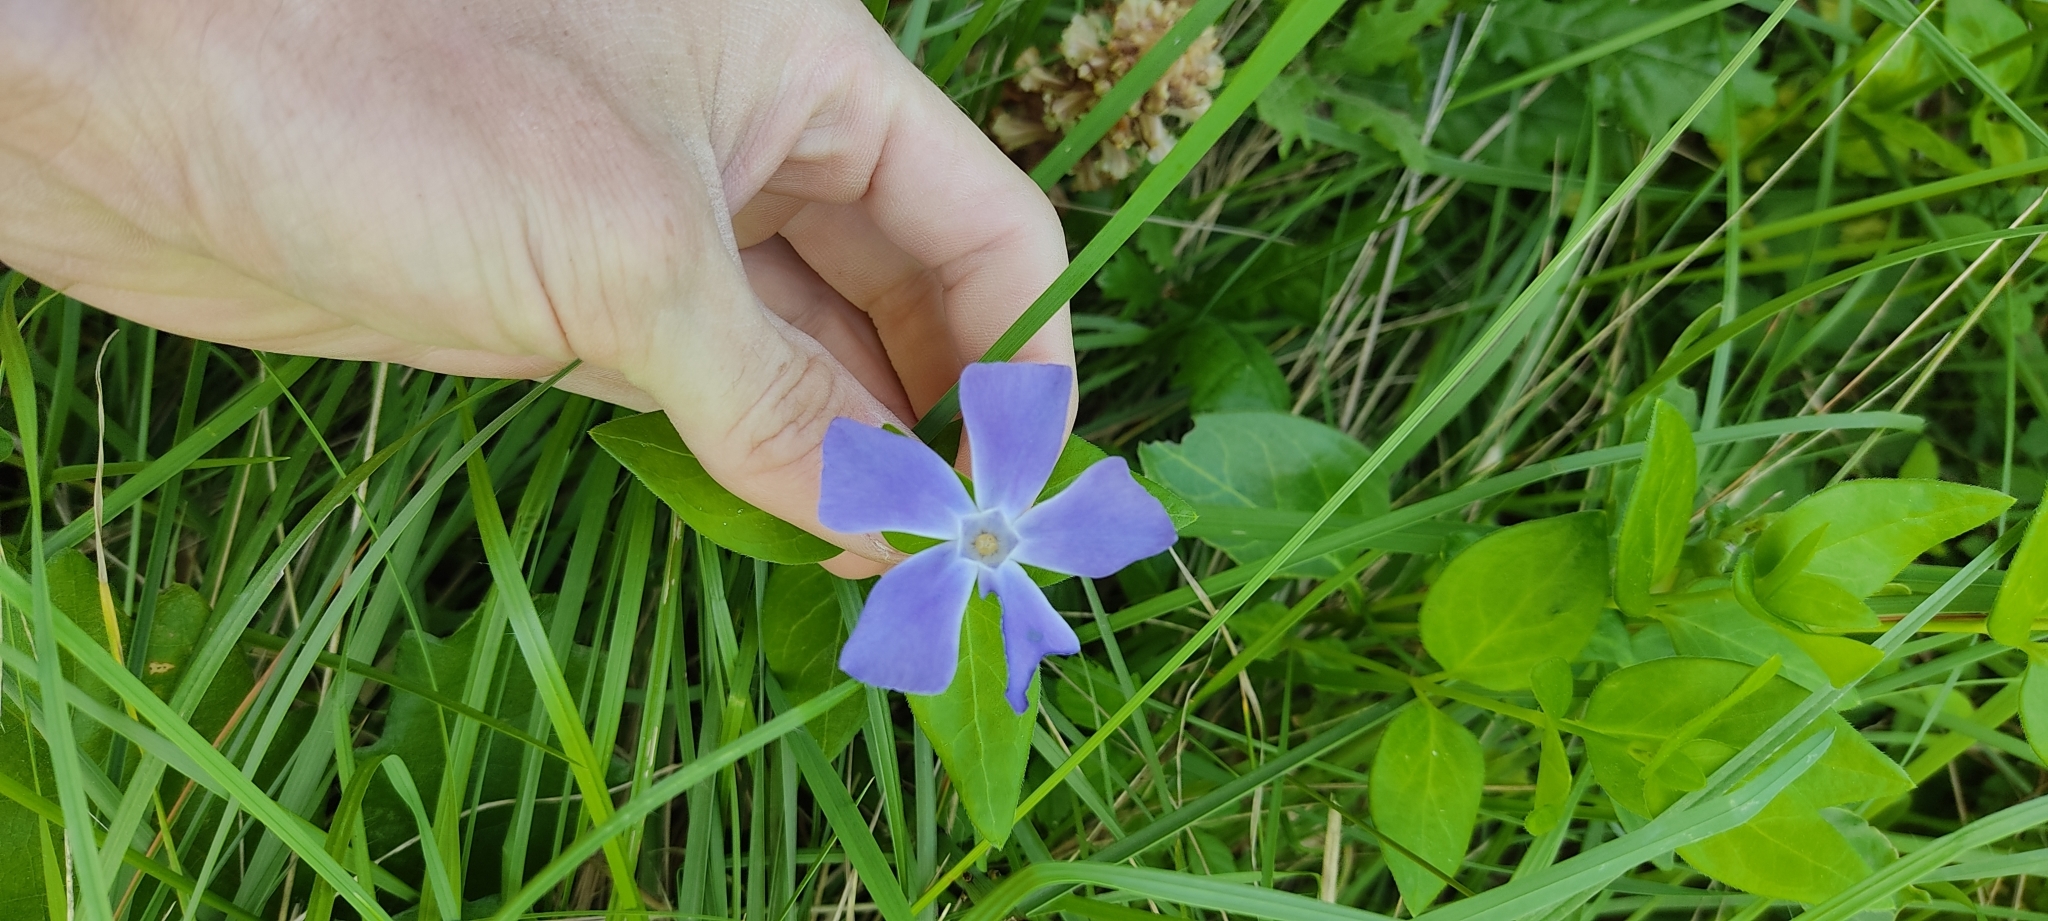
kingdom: Plantae
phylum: Tracheophyta
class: Magnoliopsida
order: Gentianales
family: Apocynaceae
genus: Vinca
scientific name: Vinca major
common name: Greater periwinkle
